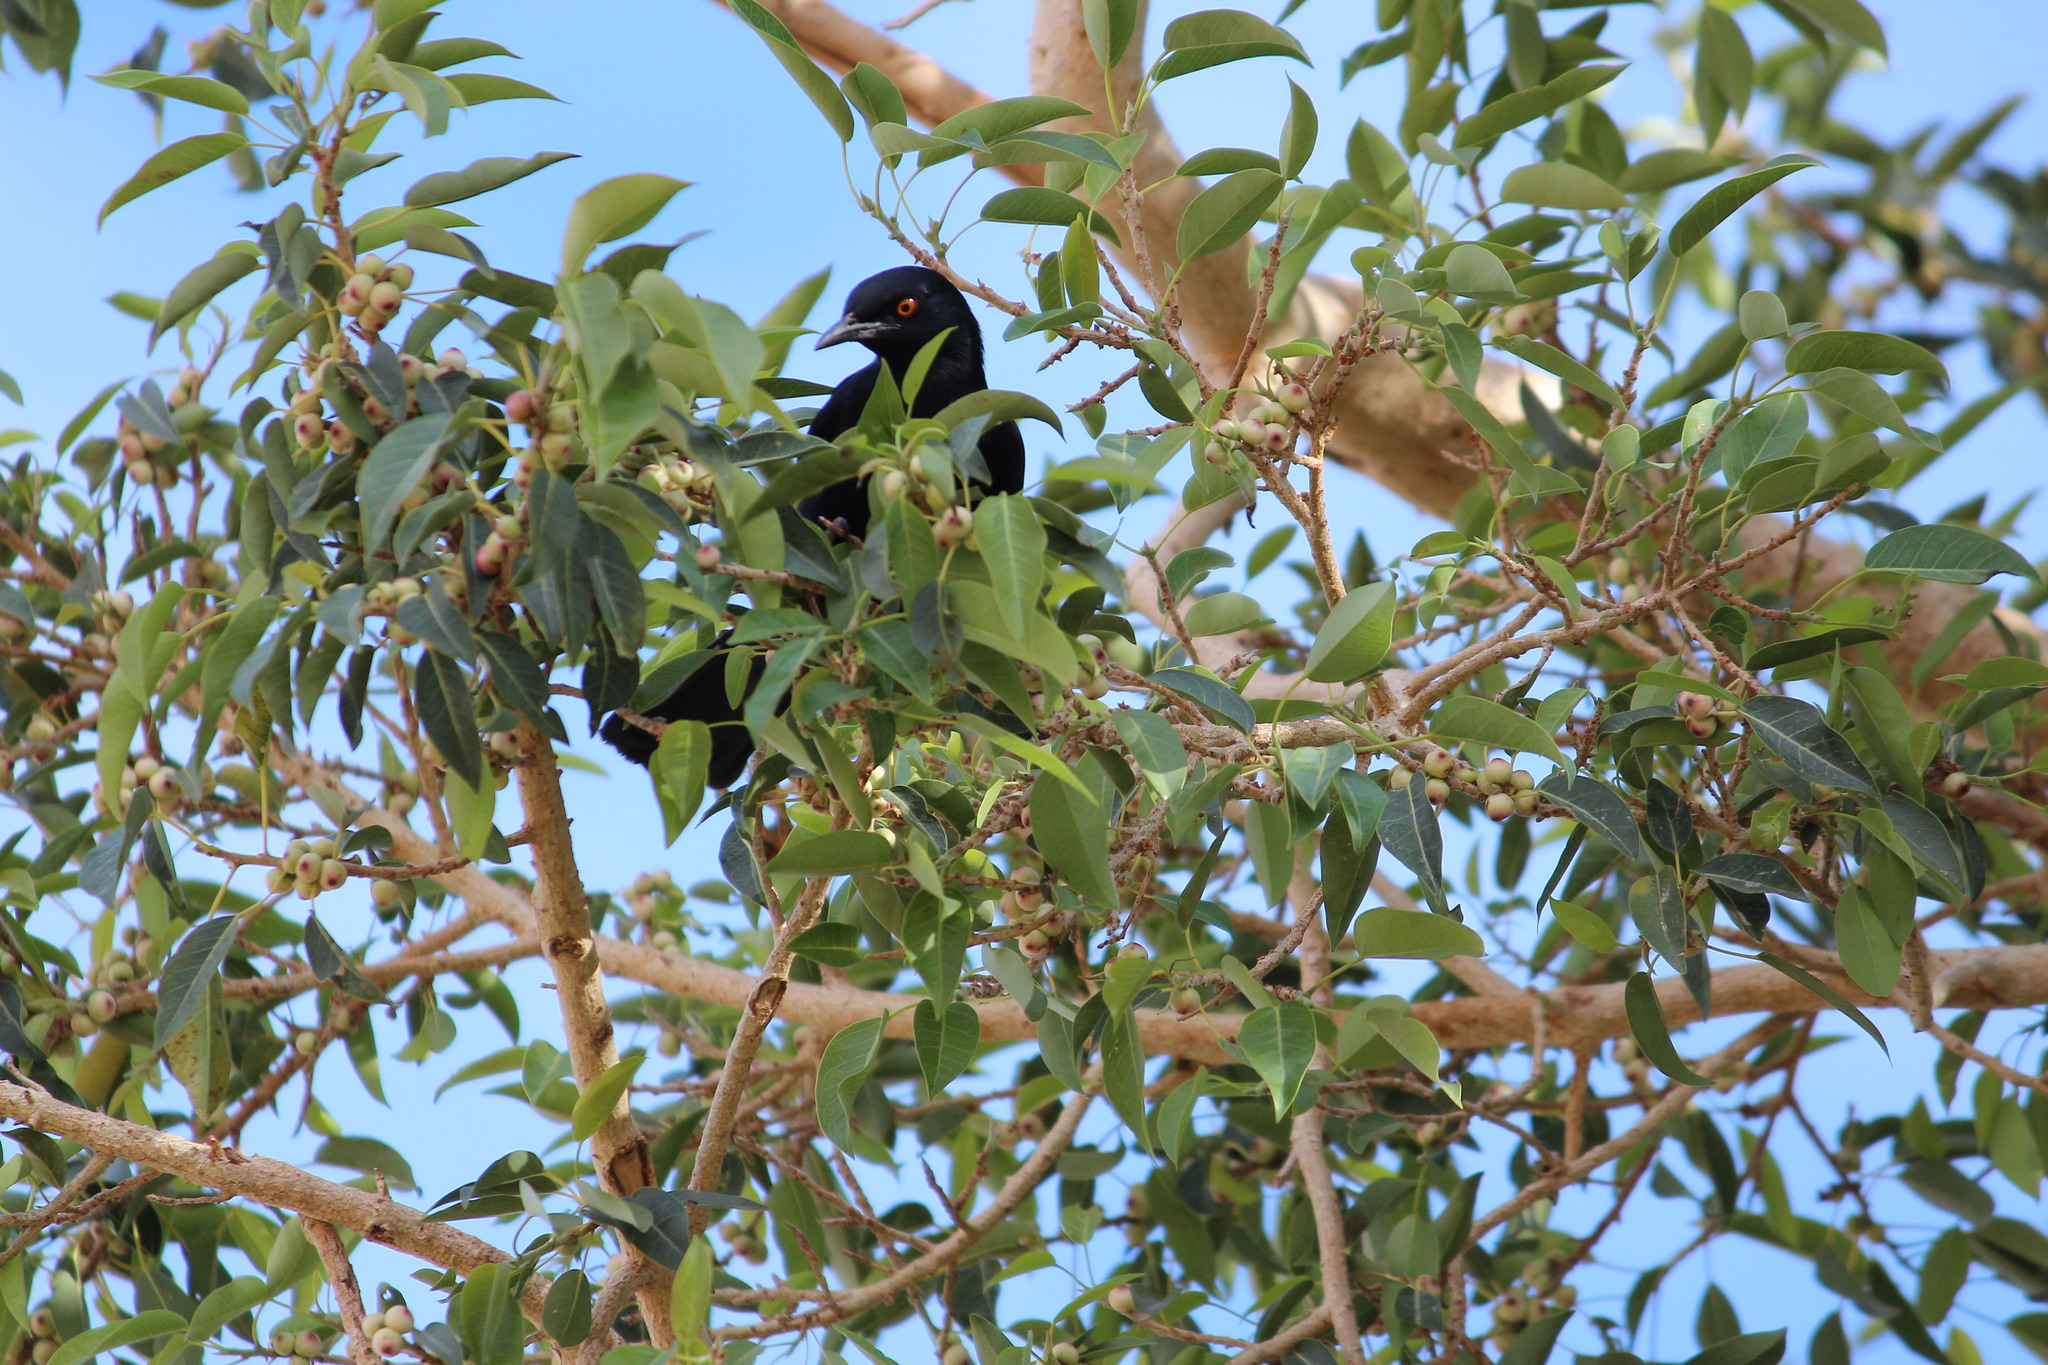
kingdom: Animalia
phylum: Chordata
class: Aves
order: Passeriformes
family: Sturnidae
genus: Onychognathus
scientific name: Onychognathus nabouroup
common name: Pale-winged starling
